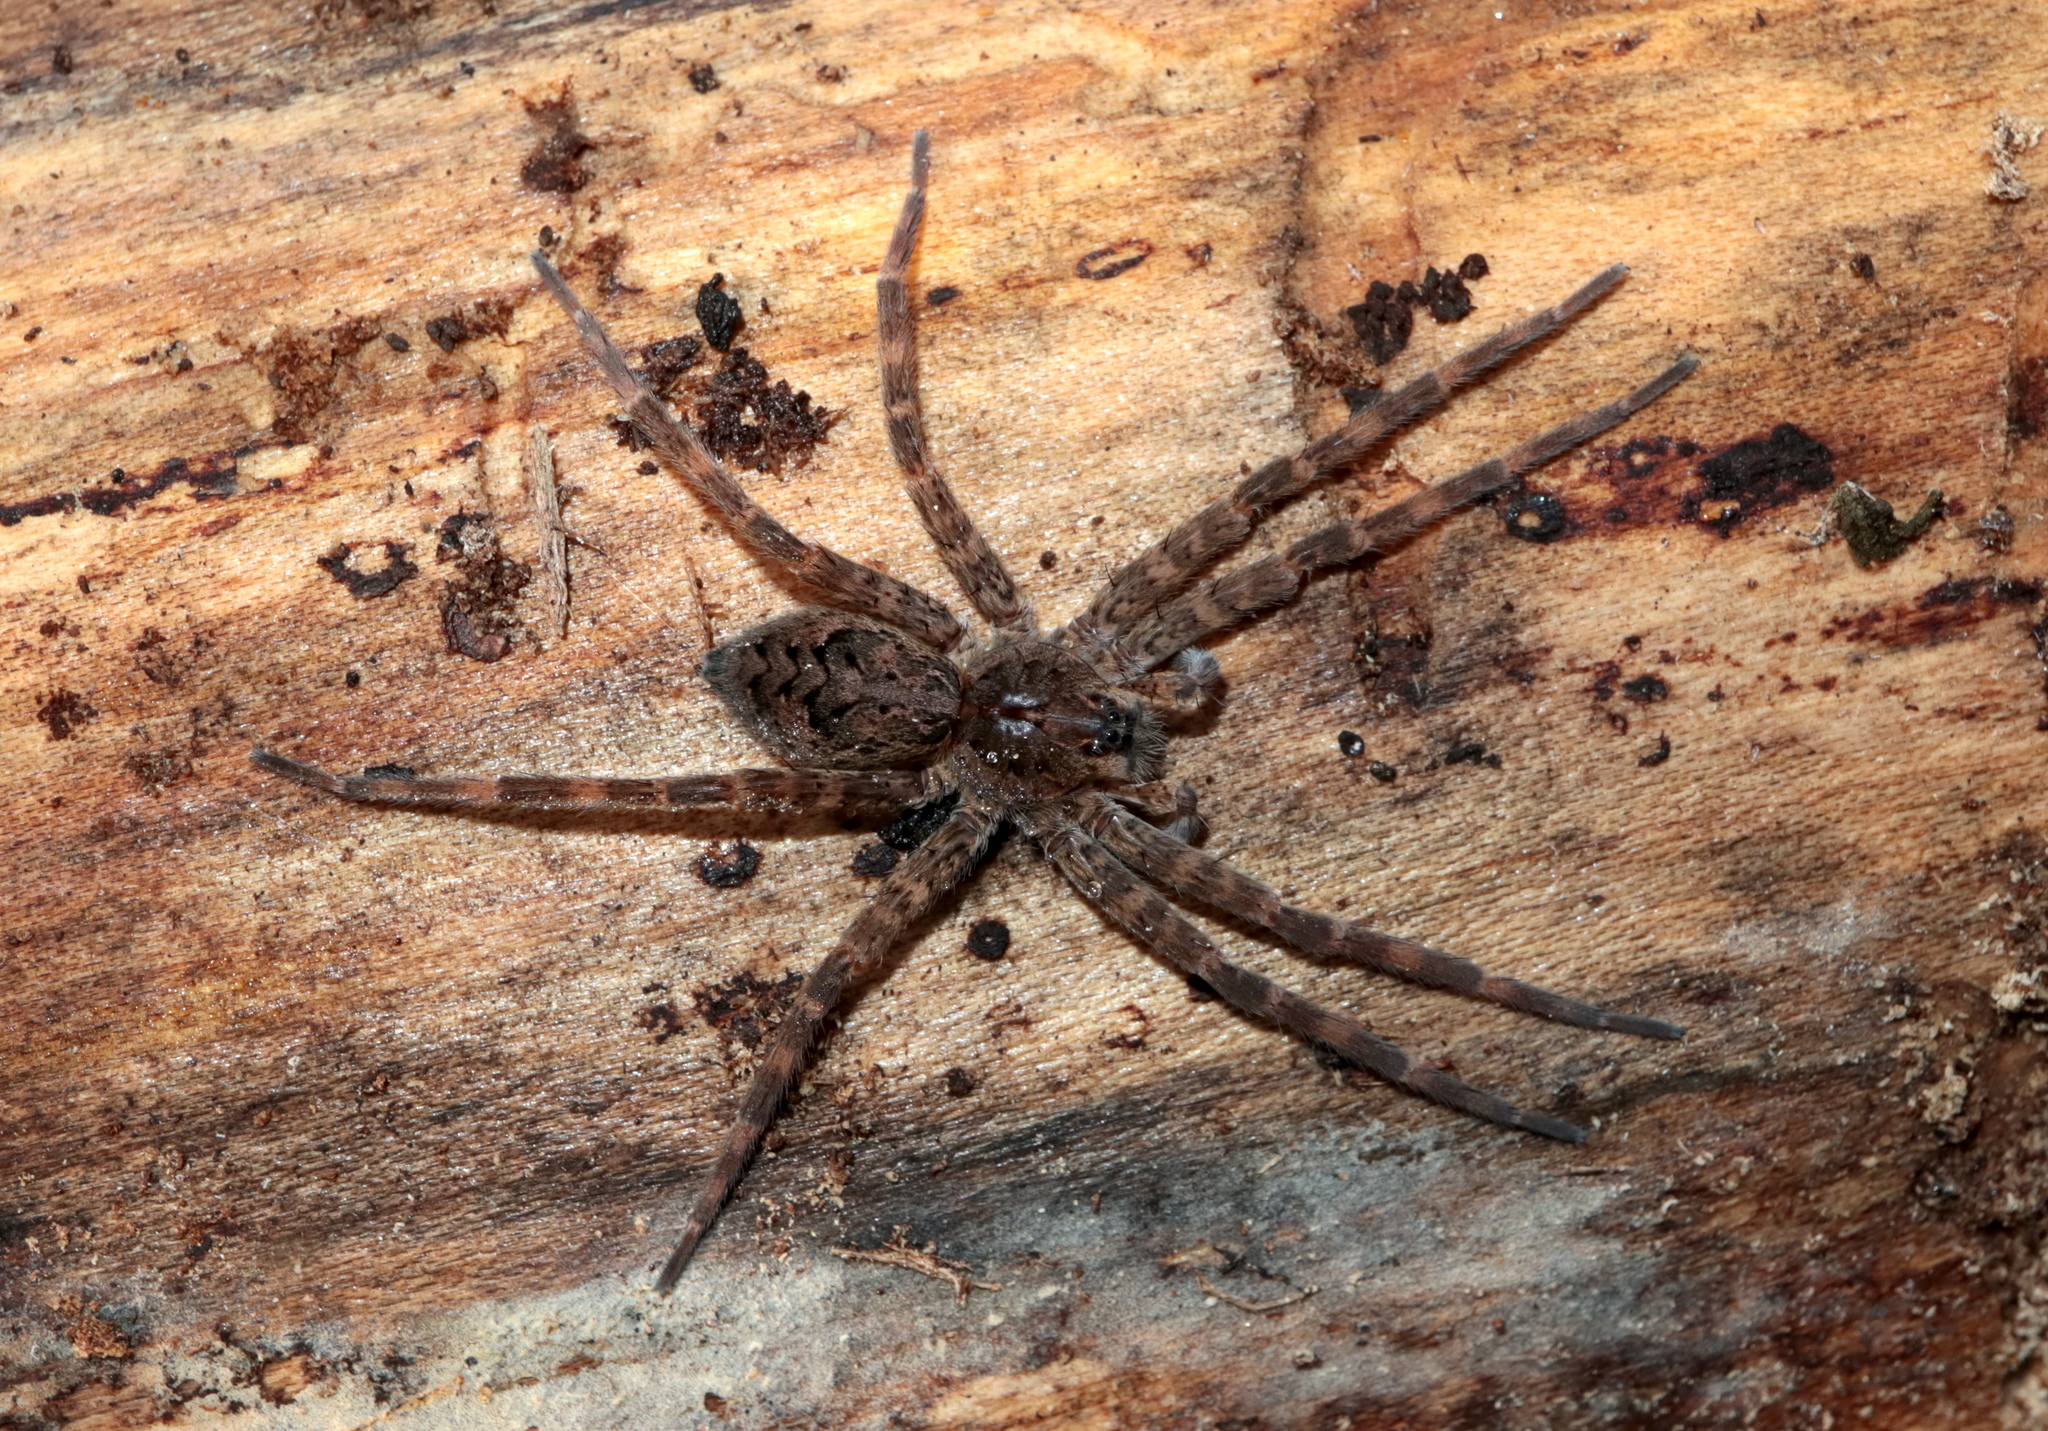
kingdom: Animalia
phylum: Arthropoda
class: Arachnida
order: Araneae
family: Pisauridae
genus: Dolomedes
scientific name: Dolomedes tenebrosus
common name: Dark fishing spider
